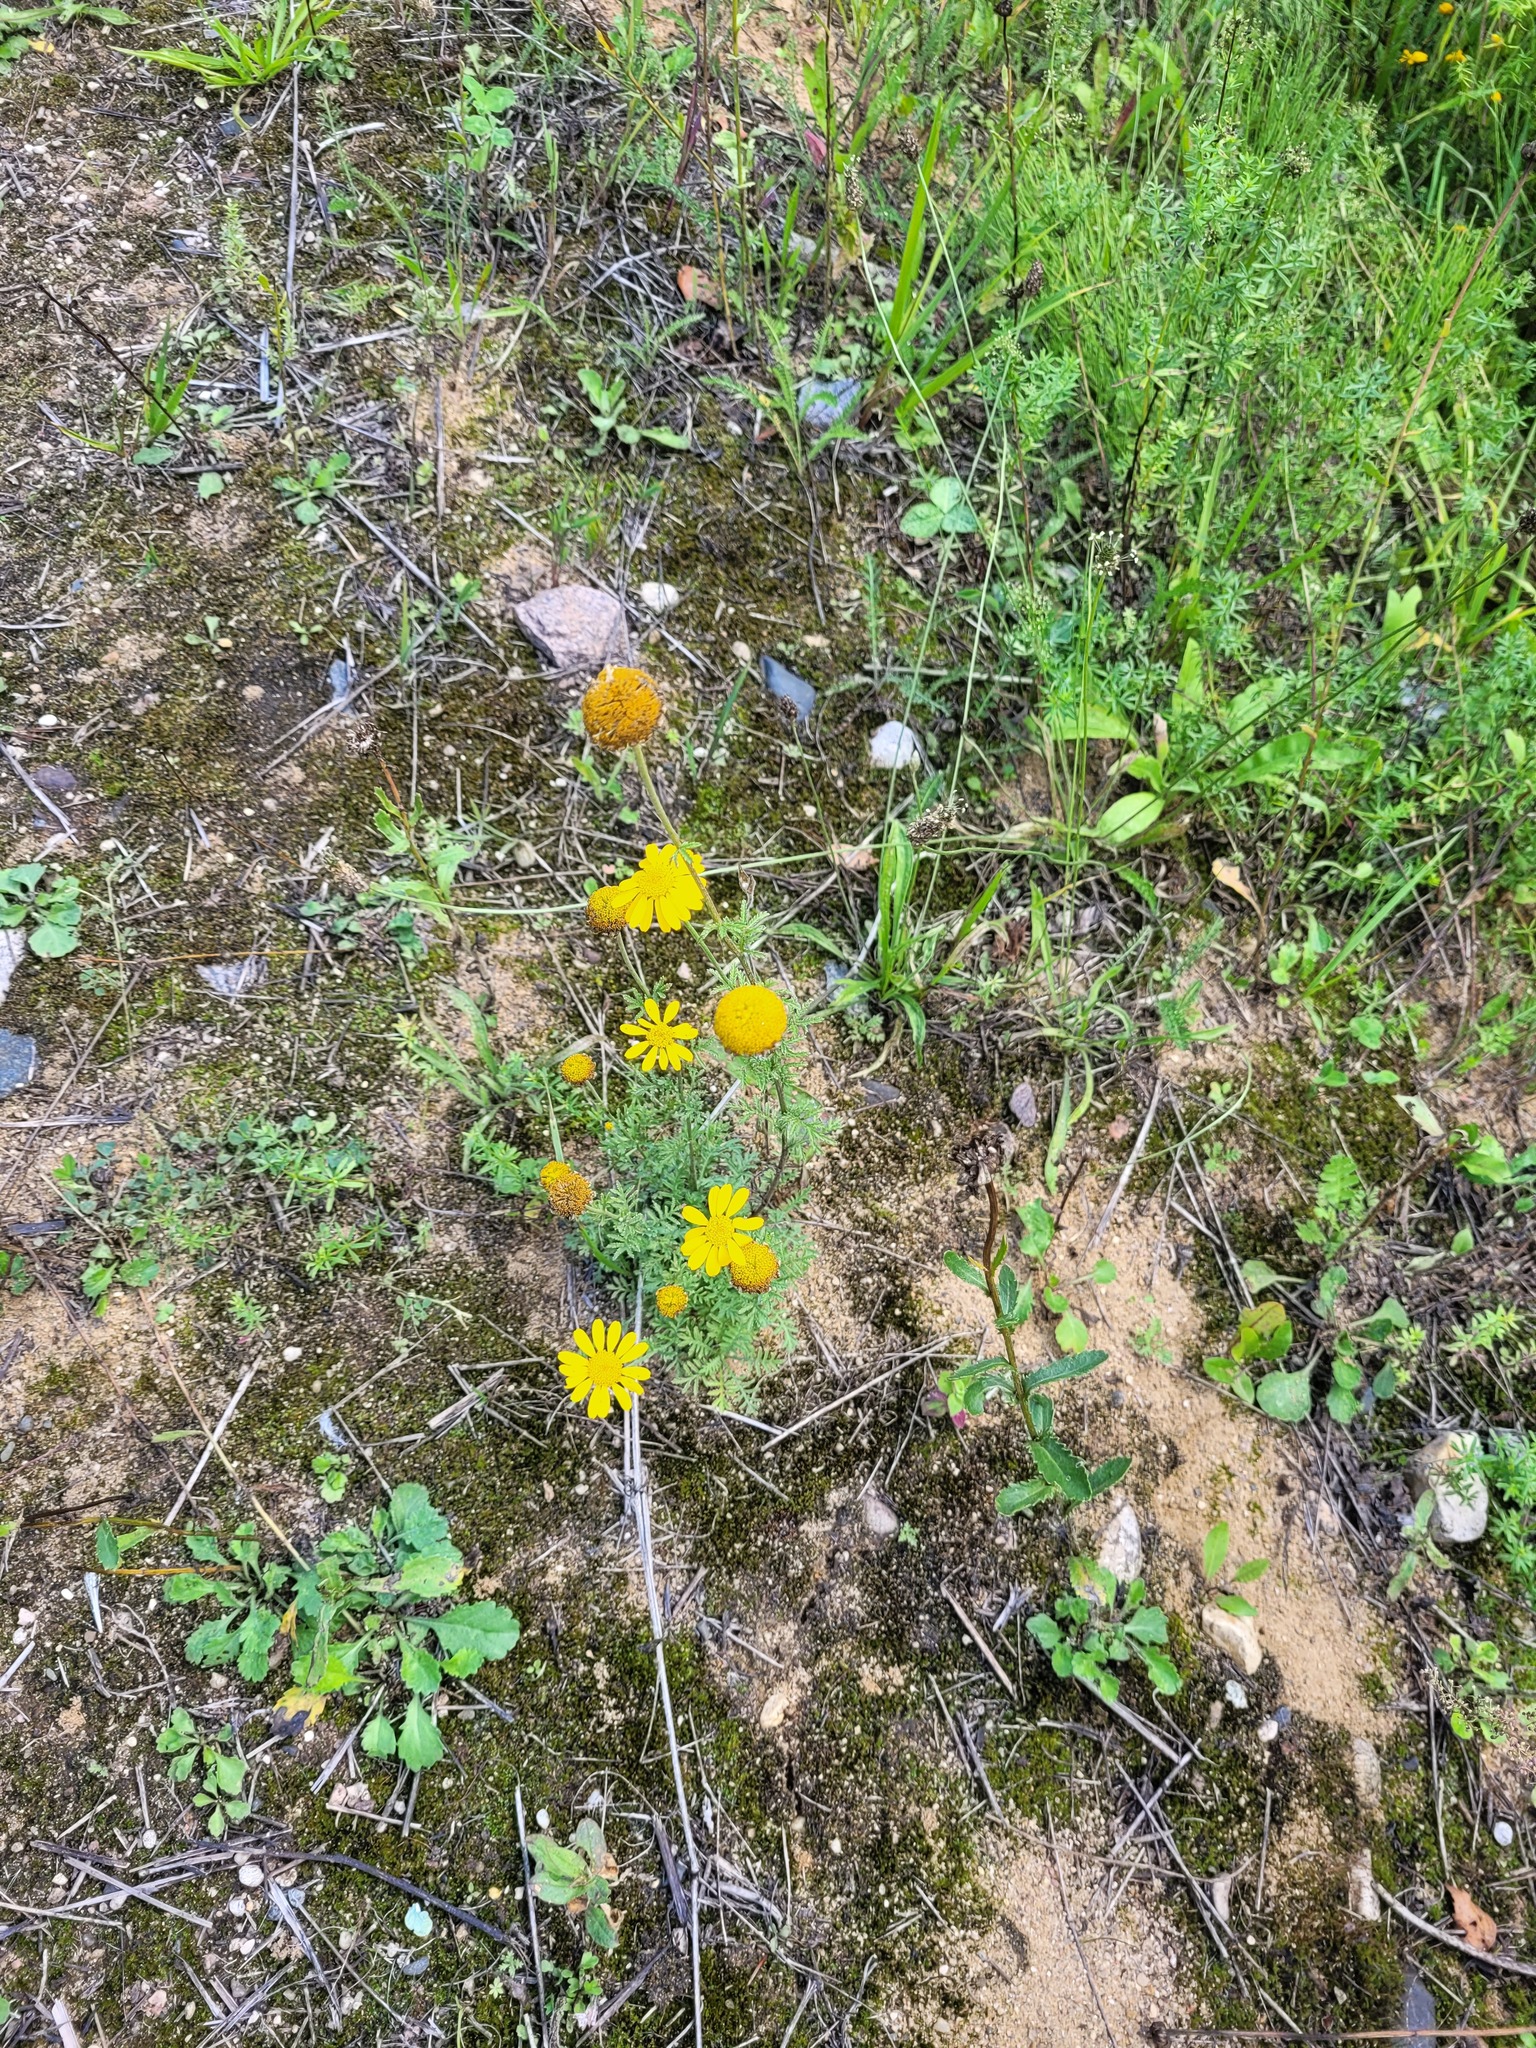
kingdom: Plantae
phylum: Tracheophyta
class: Magnoliopsida
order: Asterales
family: Asteraceae
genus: Cota
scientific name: Cota tinctoria
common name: Golden chamomile
